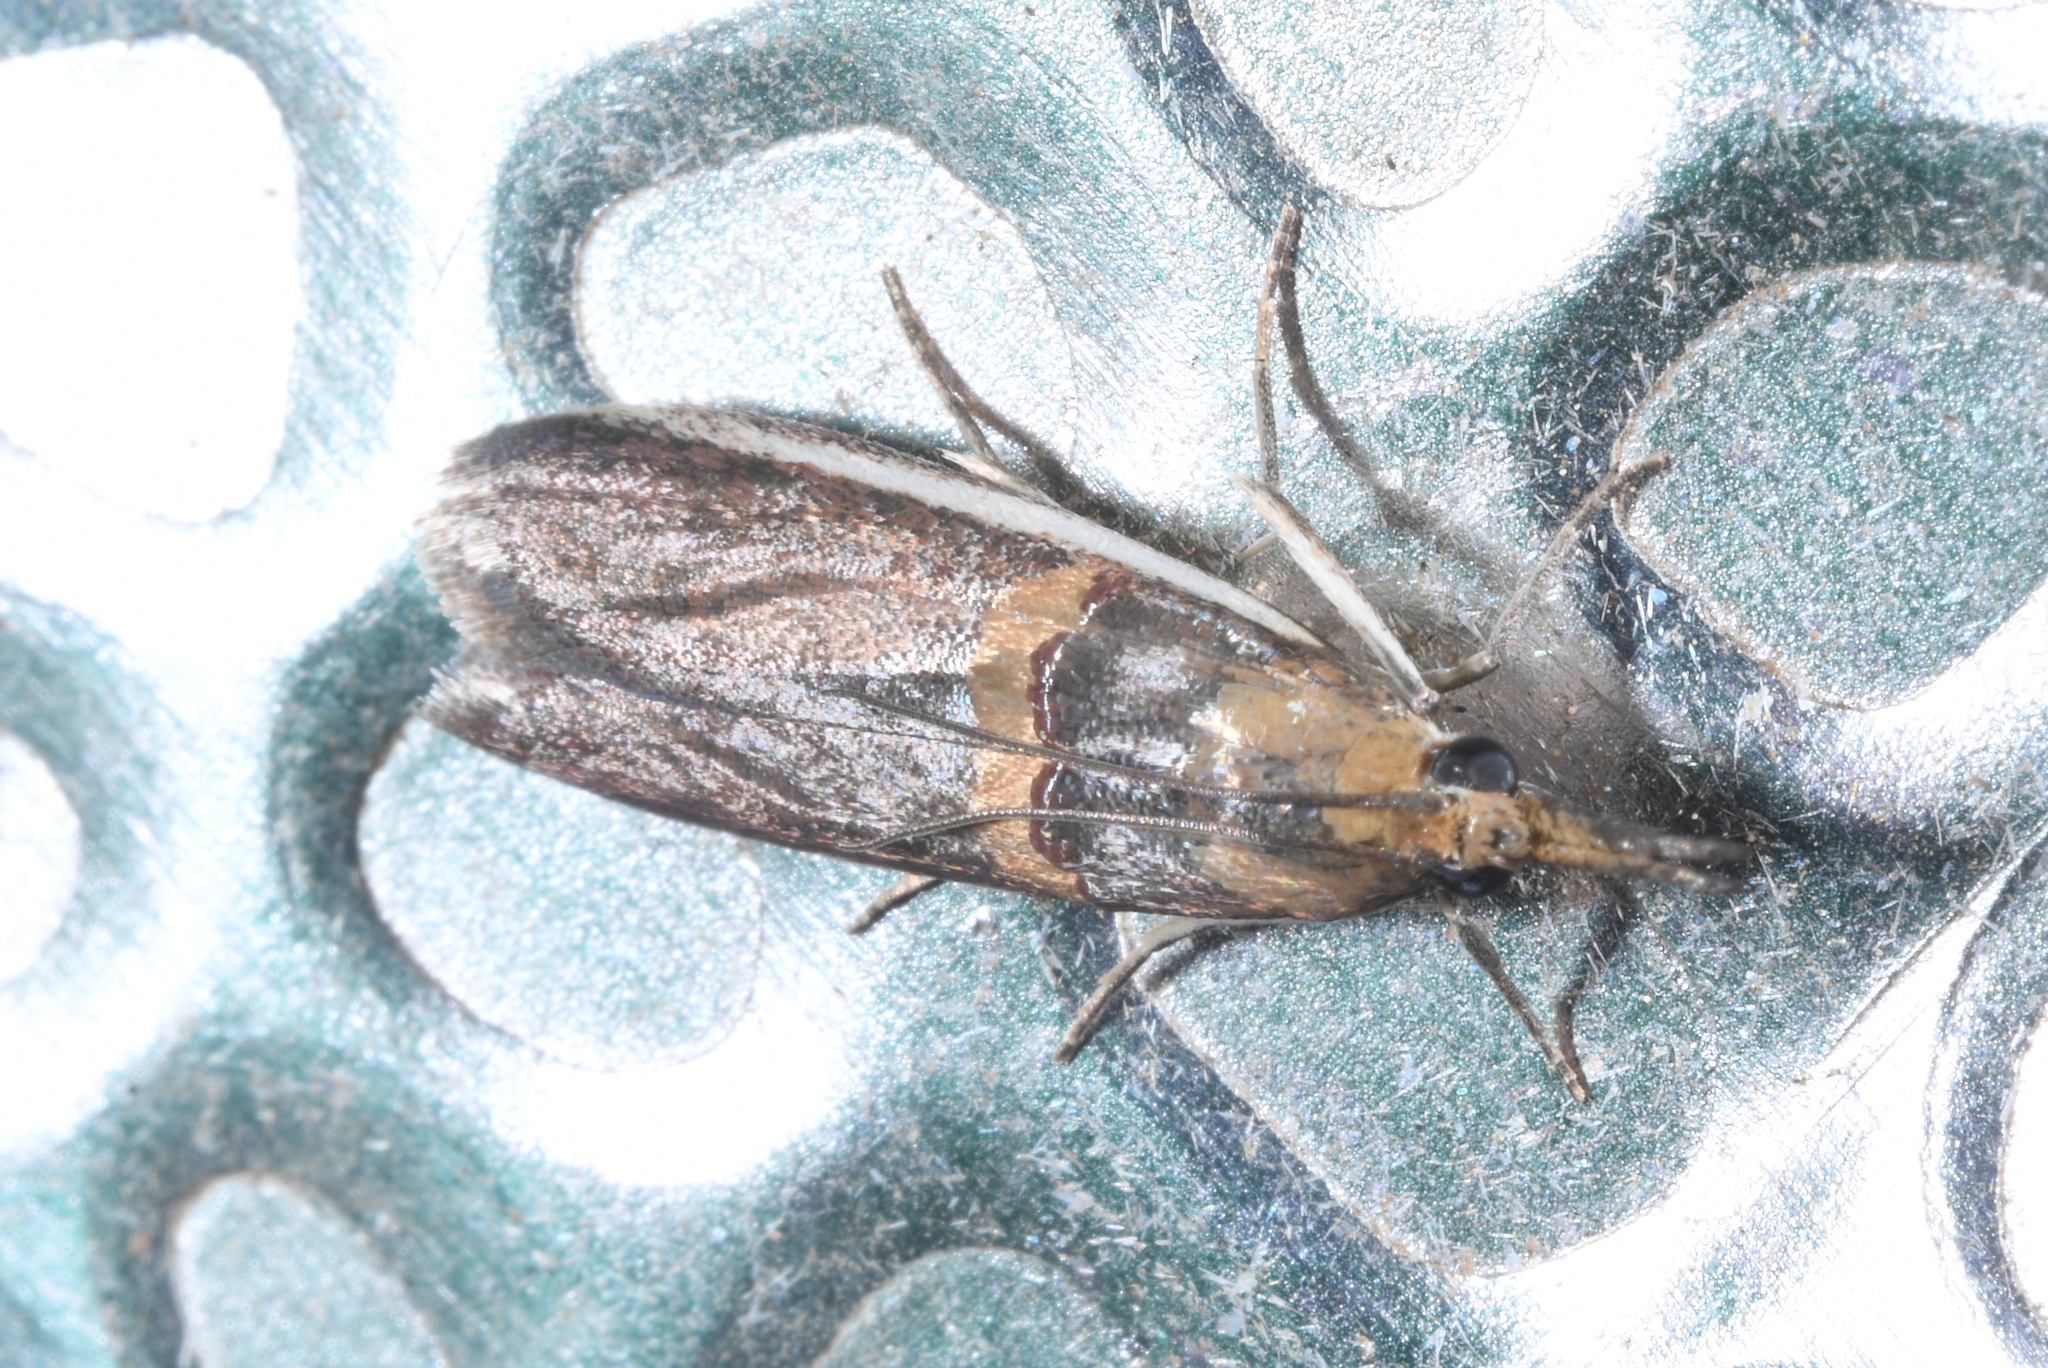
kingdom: Animalia
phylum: Arthropoda
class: Insecta
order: Lepidoptera
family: Pyralidae
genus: Etiella
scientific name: Etiella zinckenella
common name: Gold-banded etiella moth
